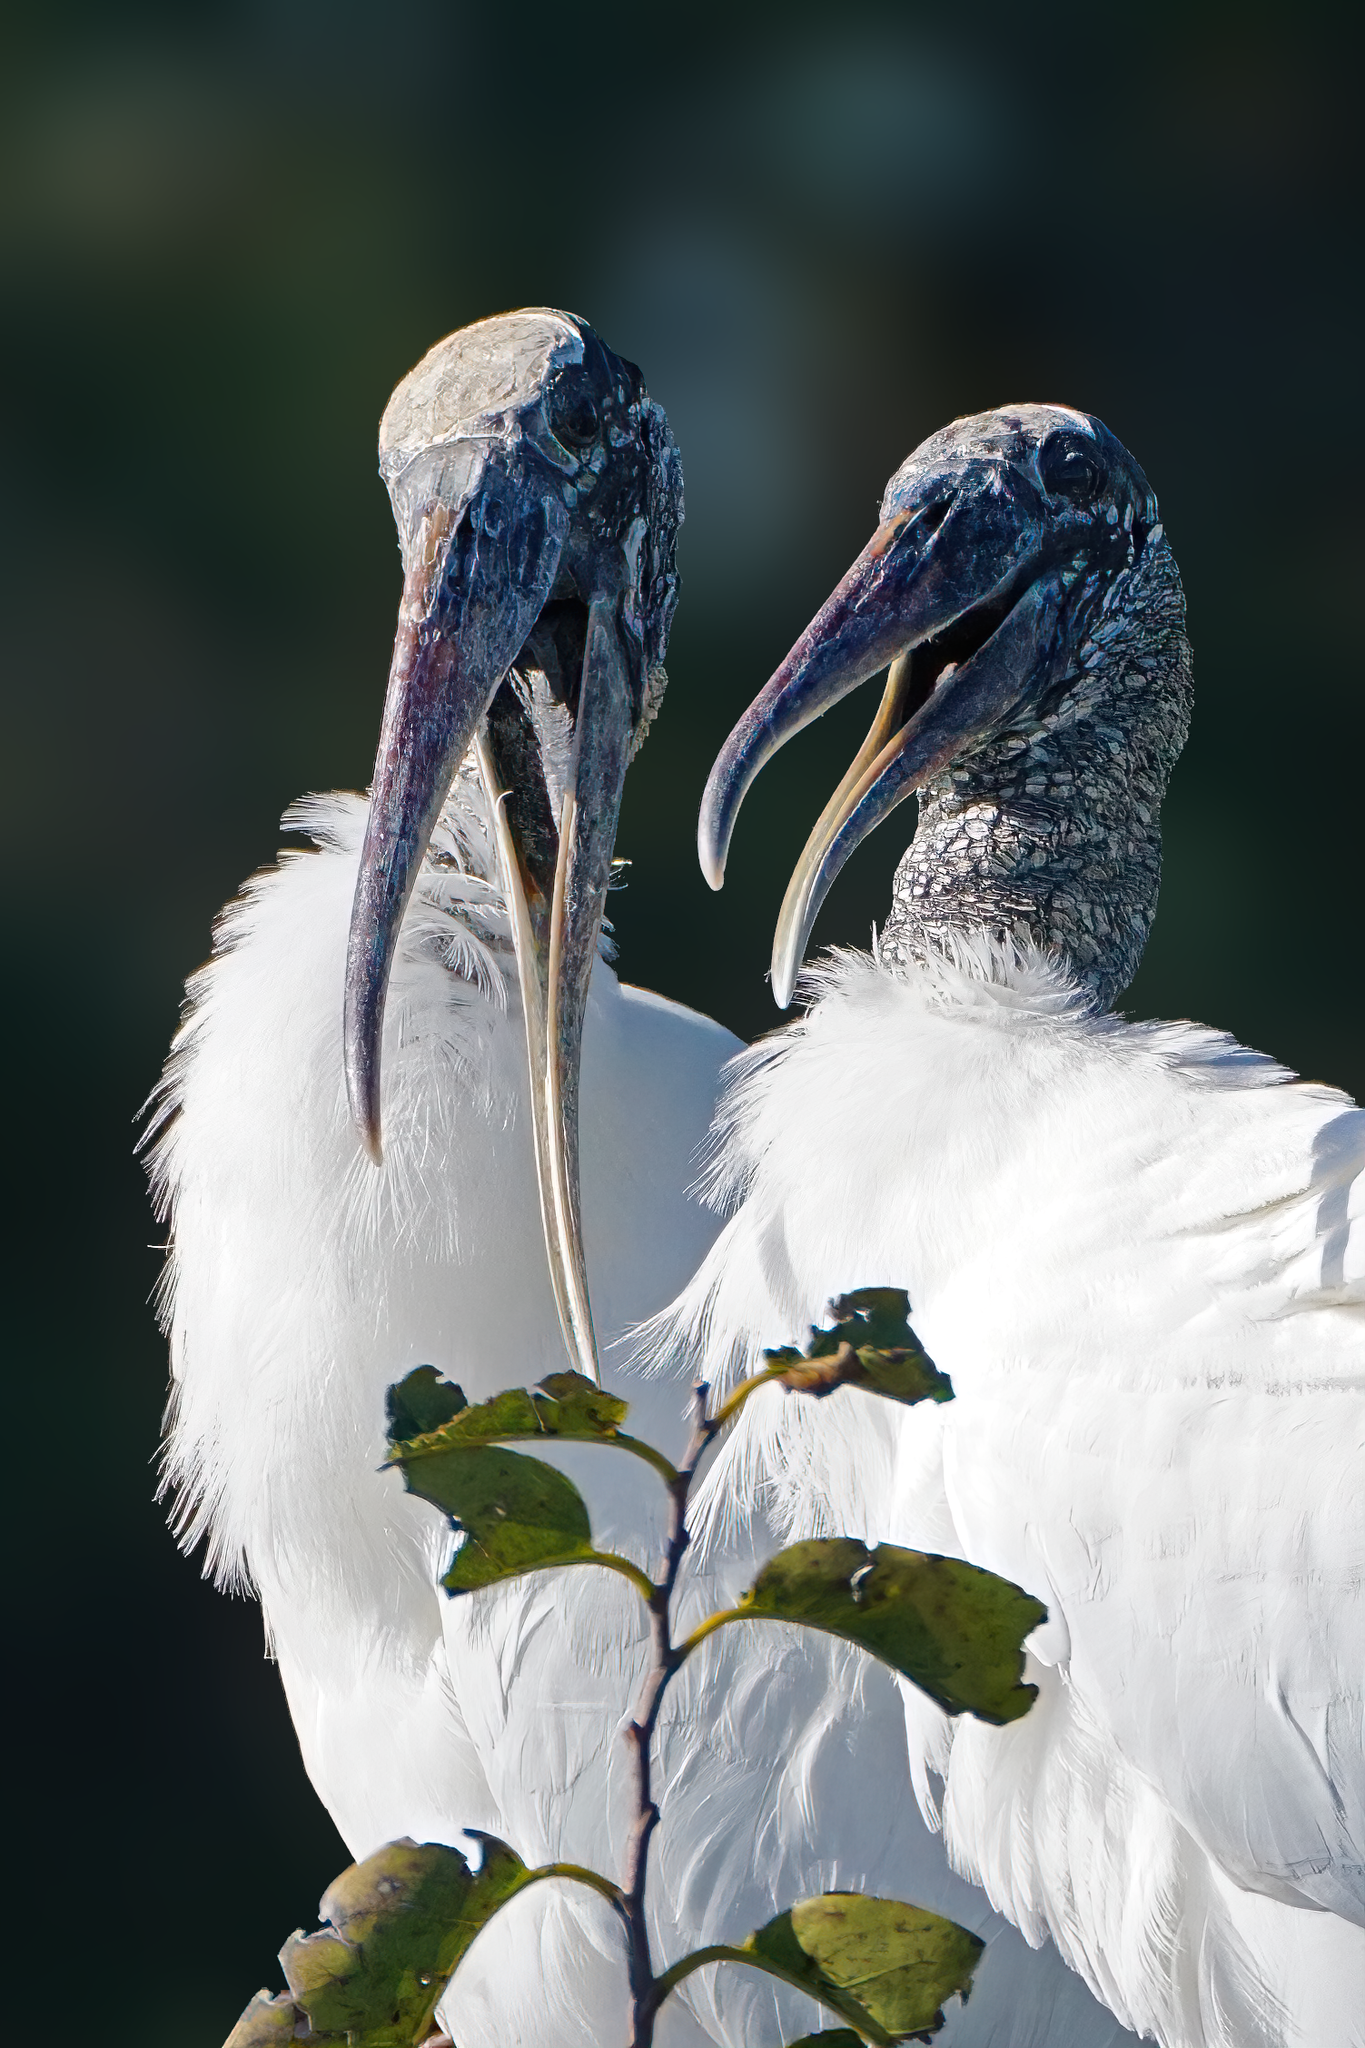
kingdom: Animalia
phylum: Chordata
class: Aves
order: Ciconiiformes
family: Ciconiidae
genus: Mycteria
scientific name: Mycteria americana
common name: Wood stork
